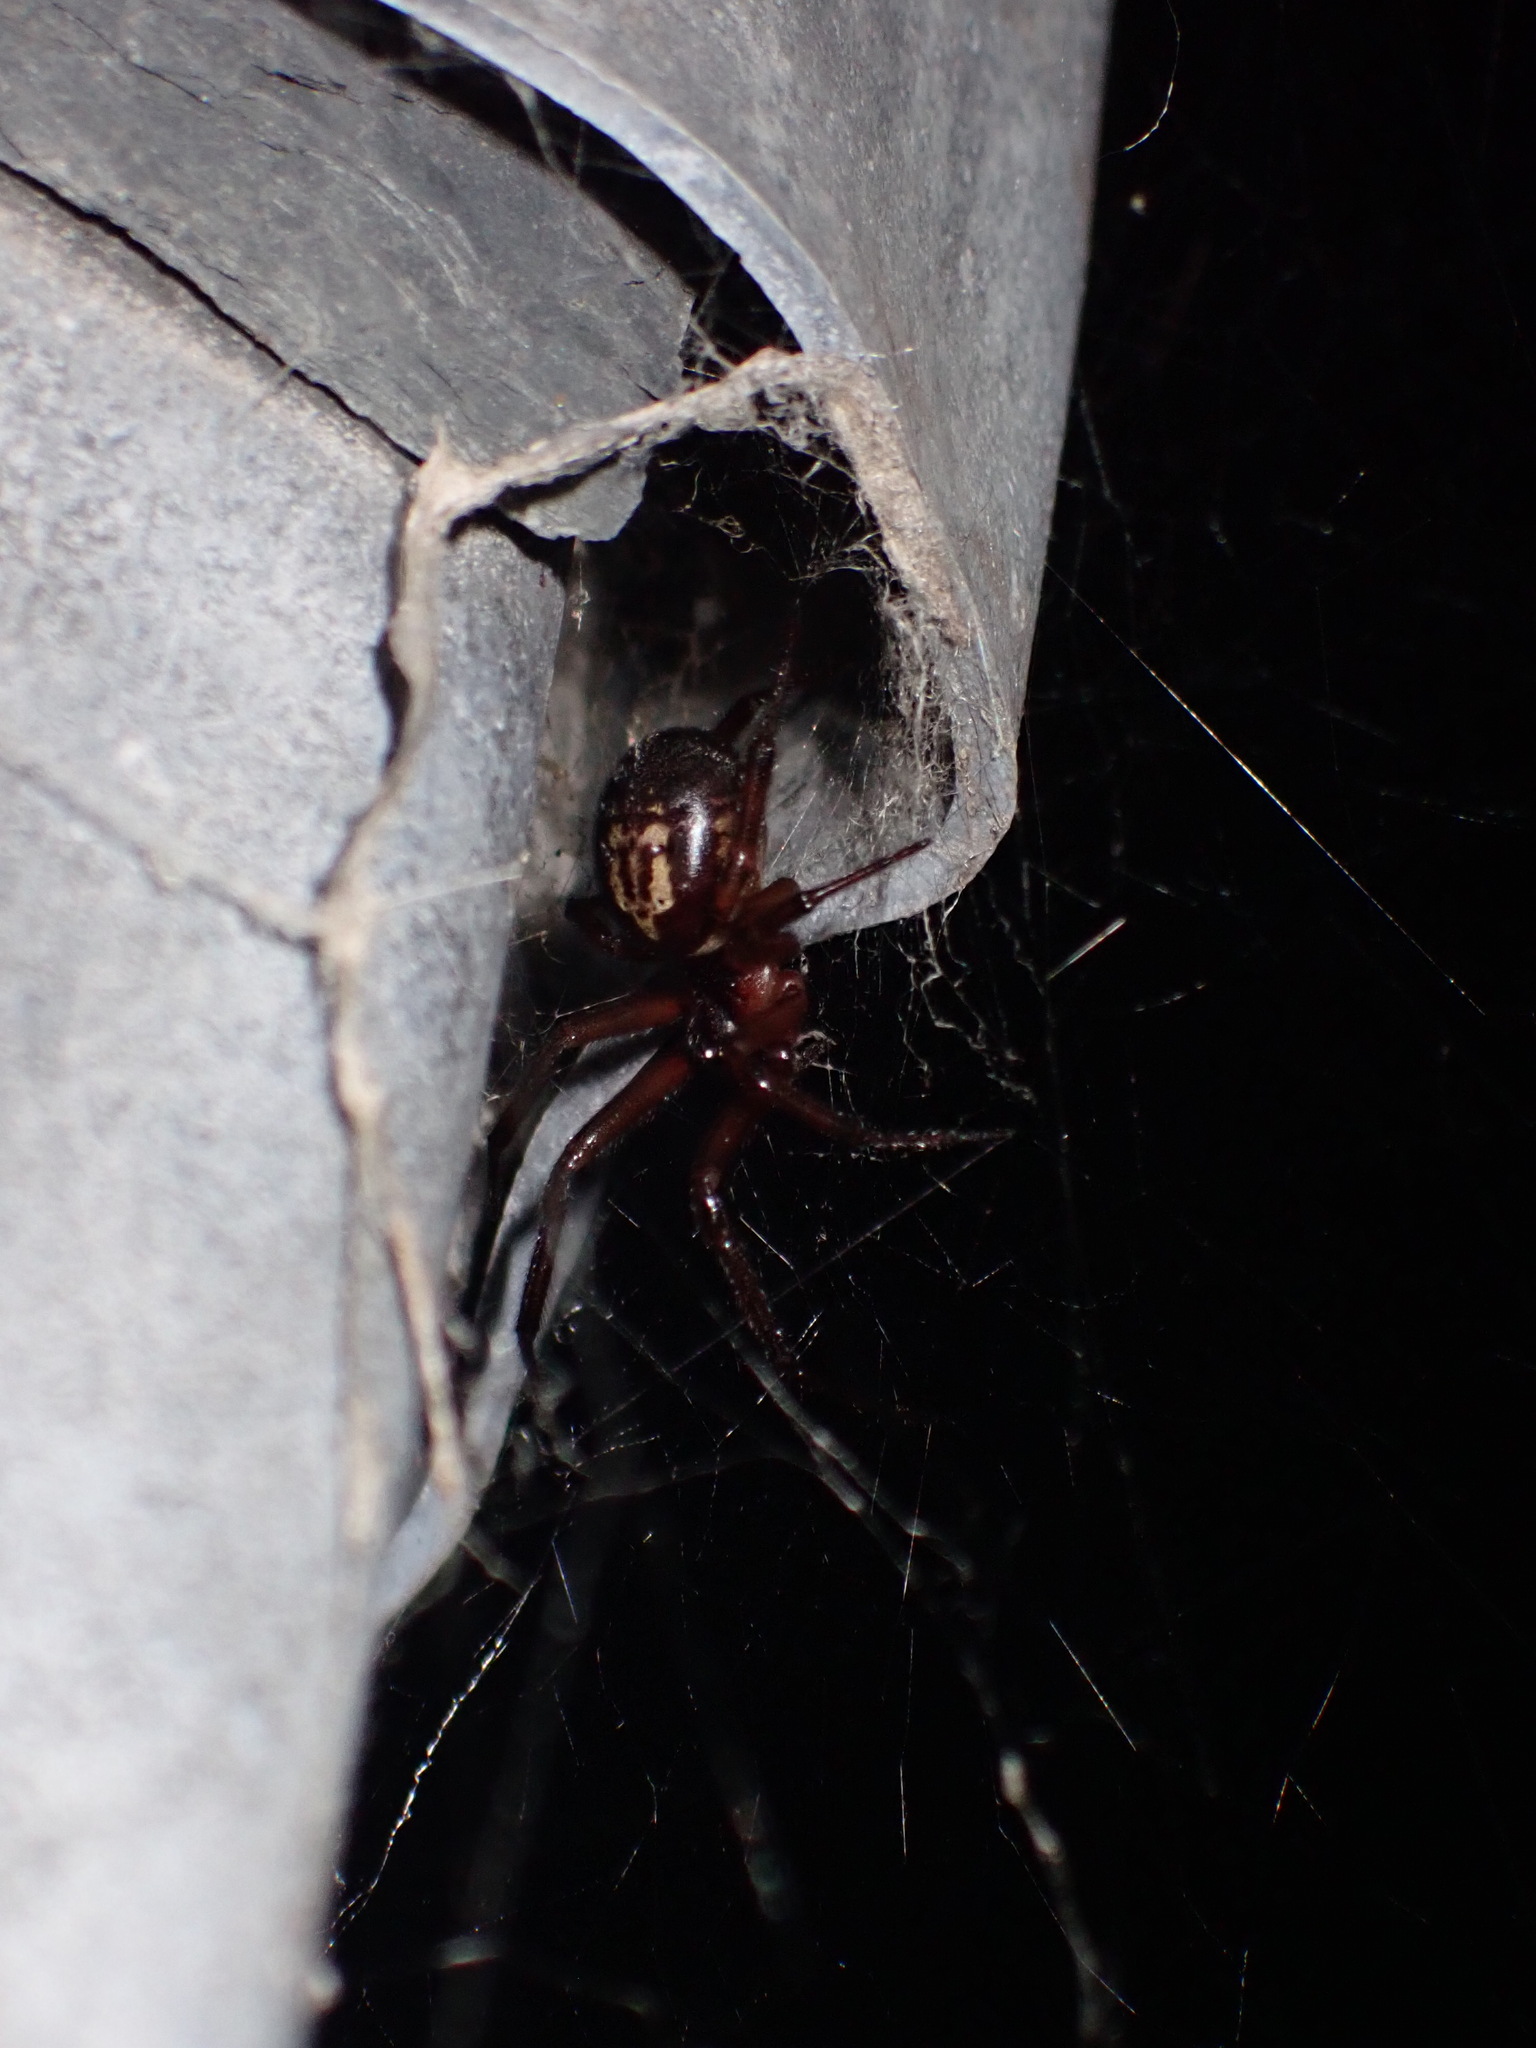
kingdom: Animalia
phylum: Arthropoda
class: Arachnida
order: Araneae
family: Theridiidae
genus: Steatoda
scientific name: Steatoda nobilis
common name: Cobweb weaver
